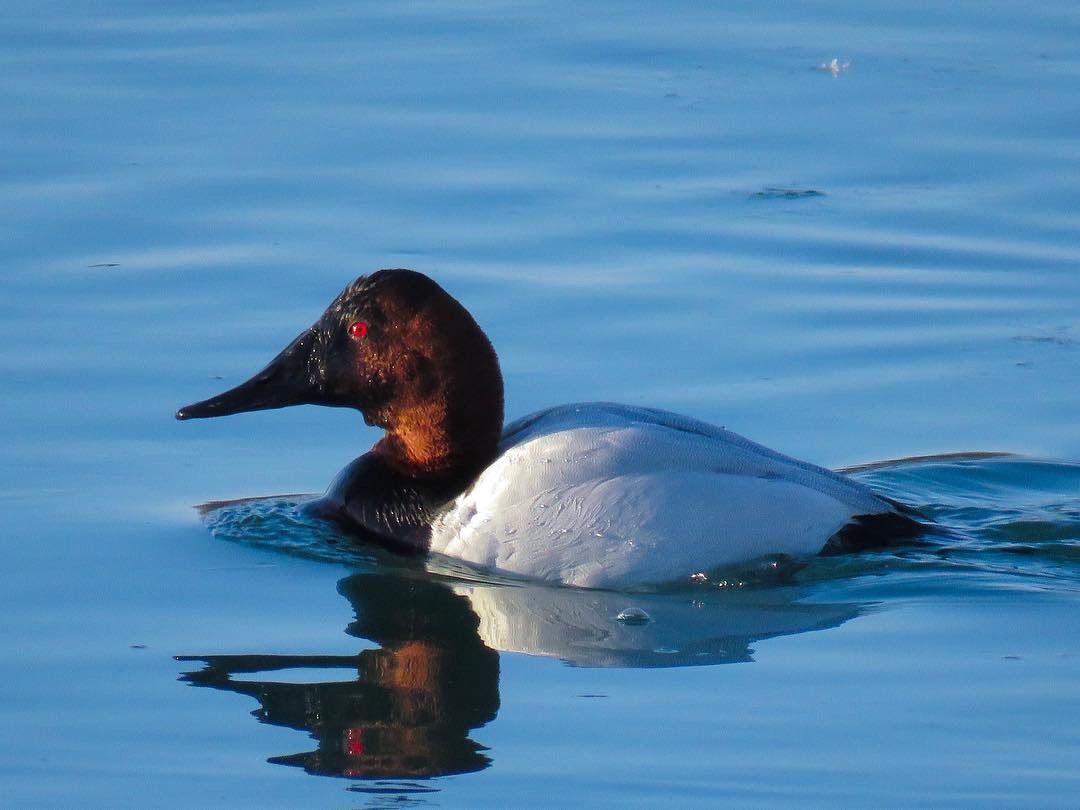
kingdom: Animalia
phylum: Chordata
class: Aves
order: Anseriformes
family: Anatidae
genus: Aythya
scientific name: Aythya valisineria
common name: Canvasback
